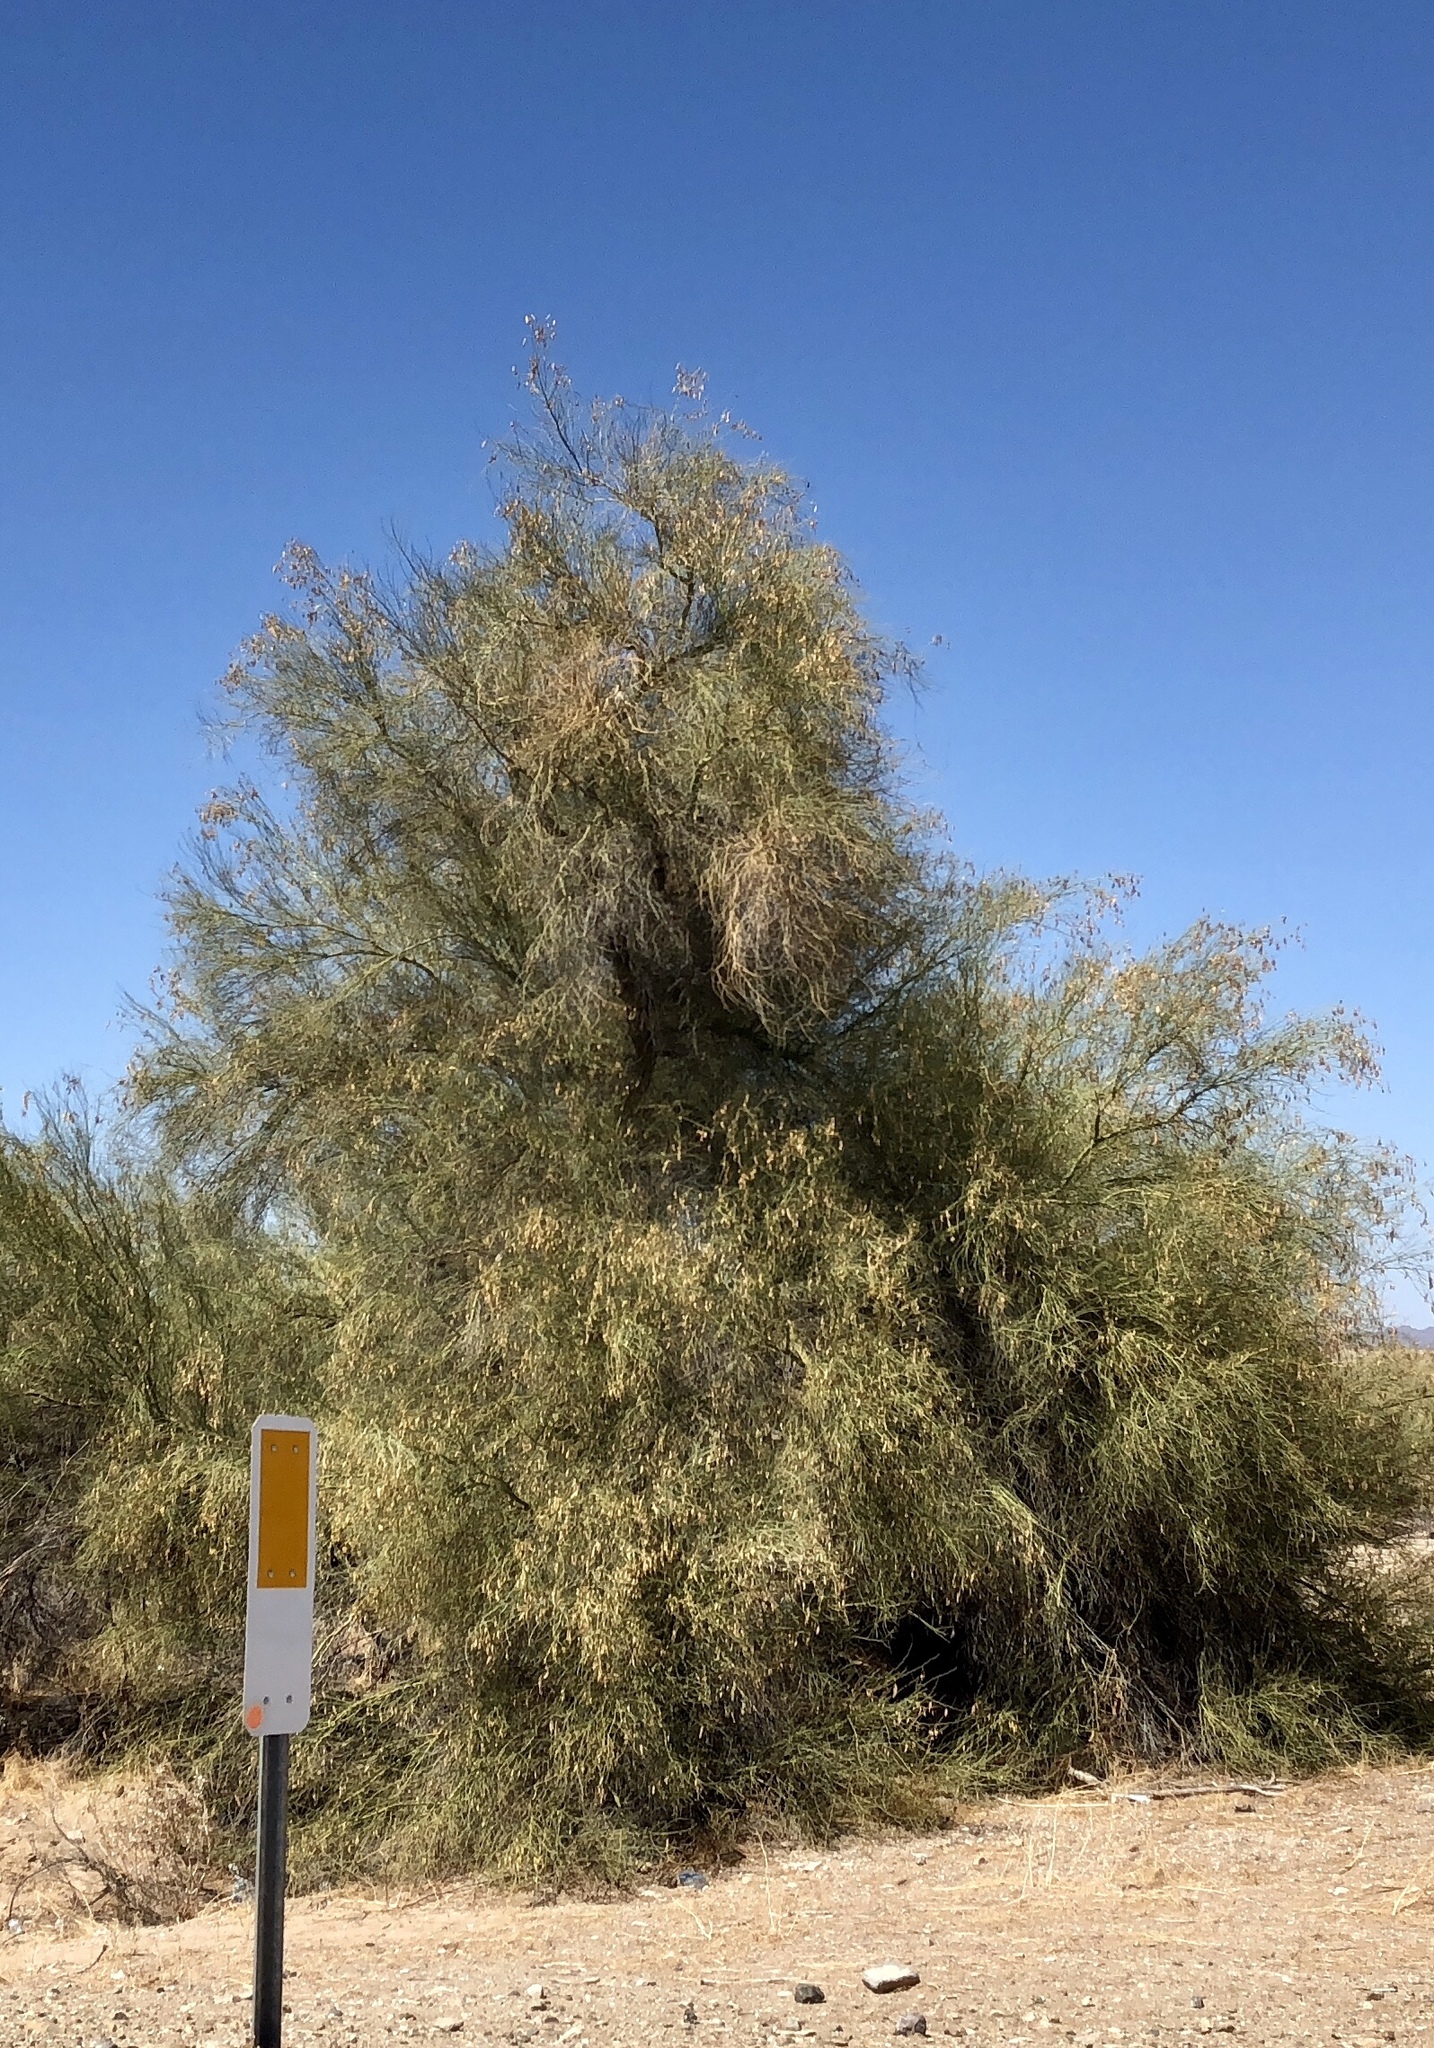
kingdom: Plantae
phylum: Tracheophyta
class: Magnoliopsida
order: Fabales
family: Fabaceae
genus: Parkinsonia
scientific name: Parkinsonia florida
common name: Blue paloverde
